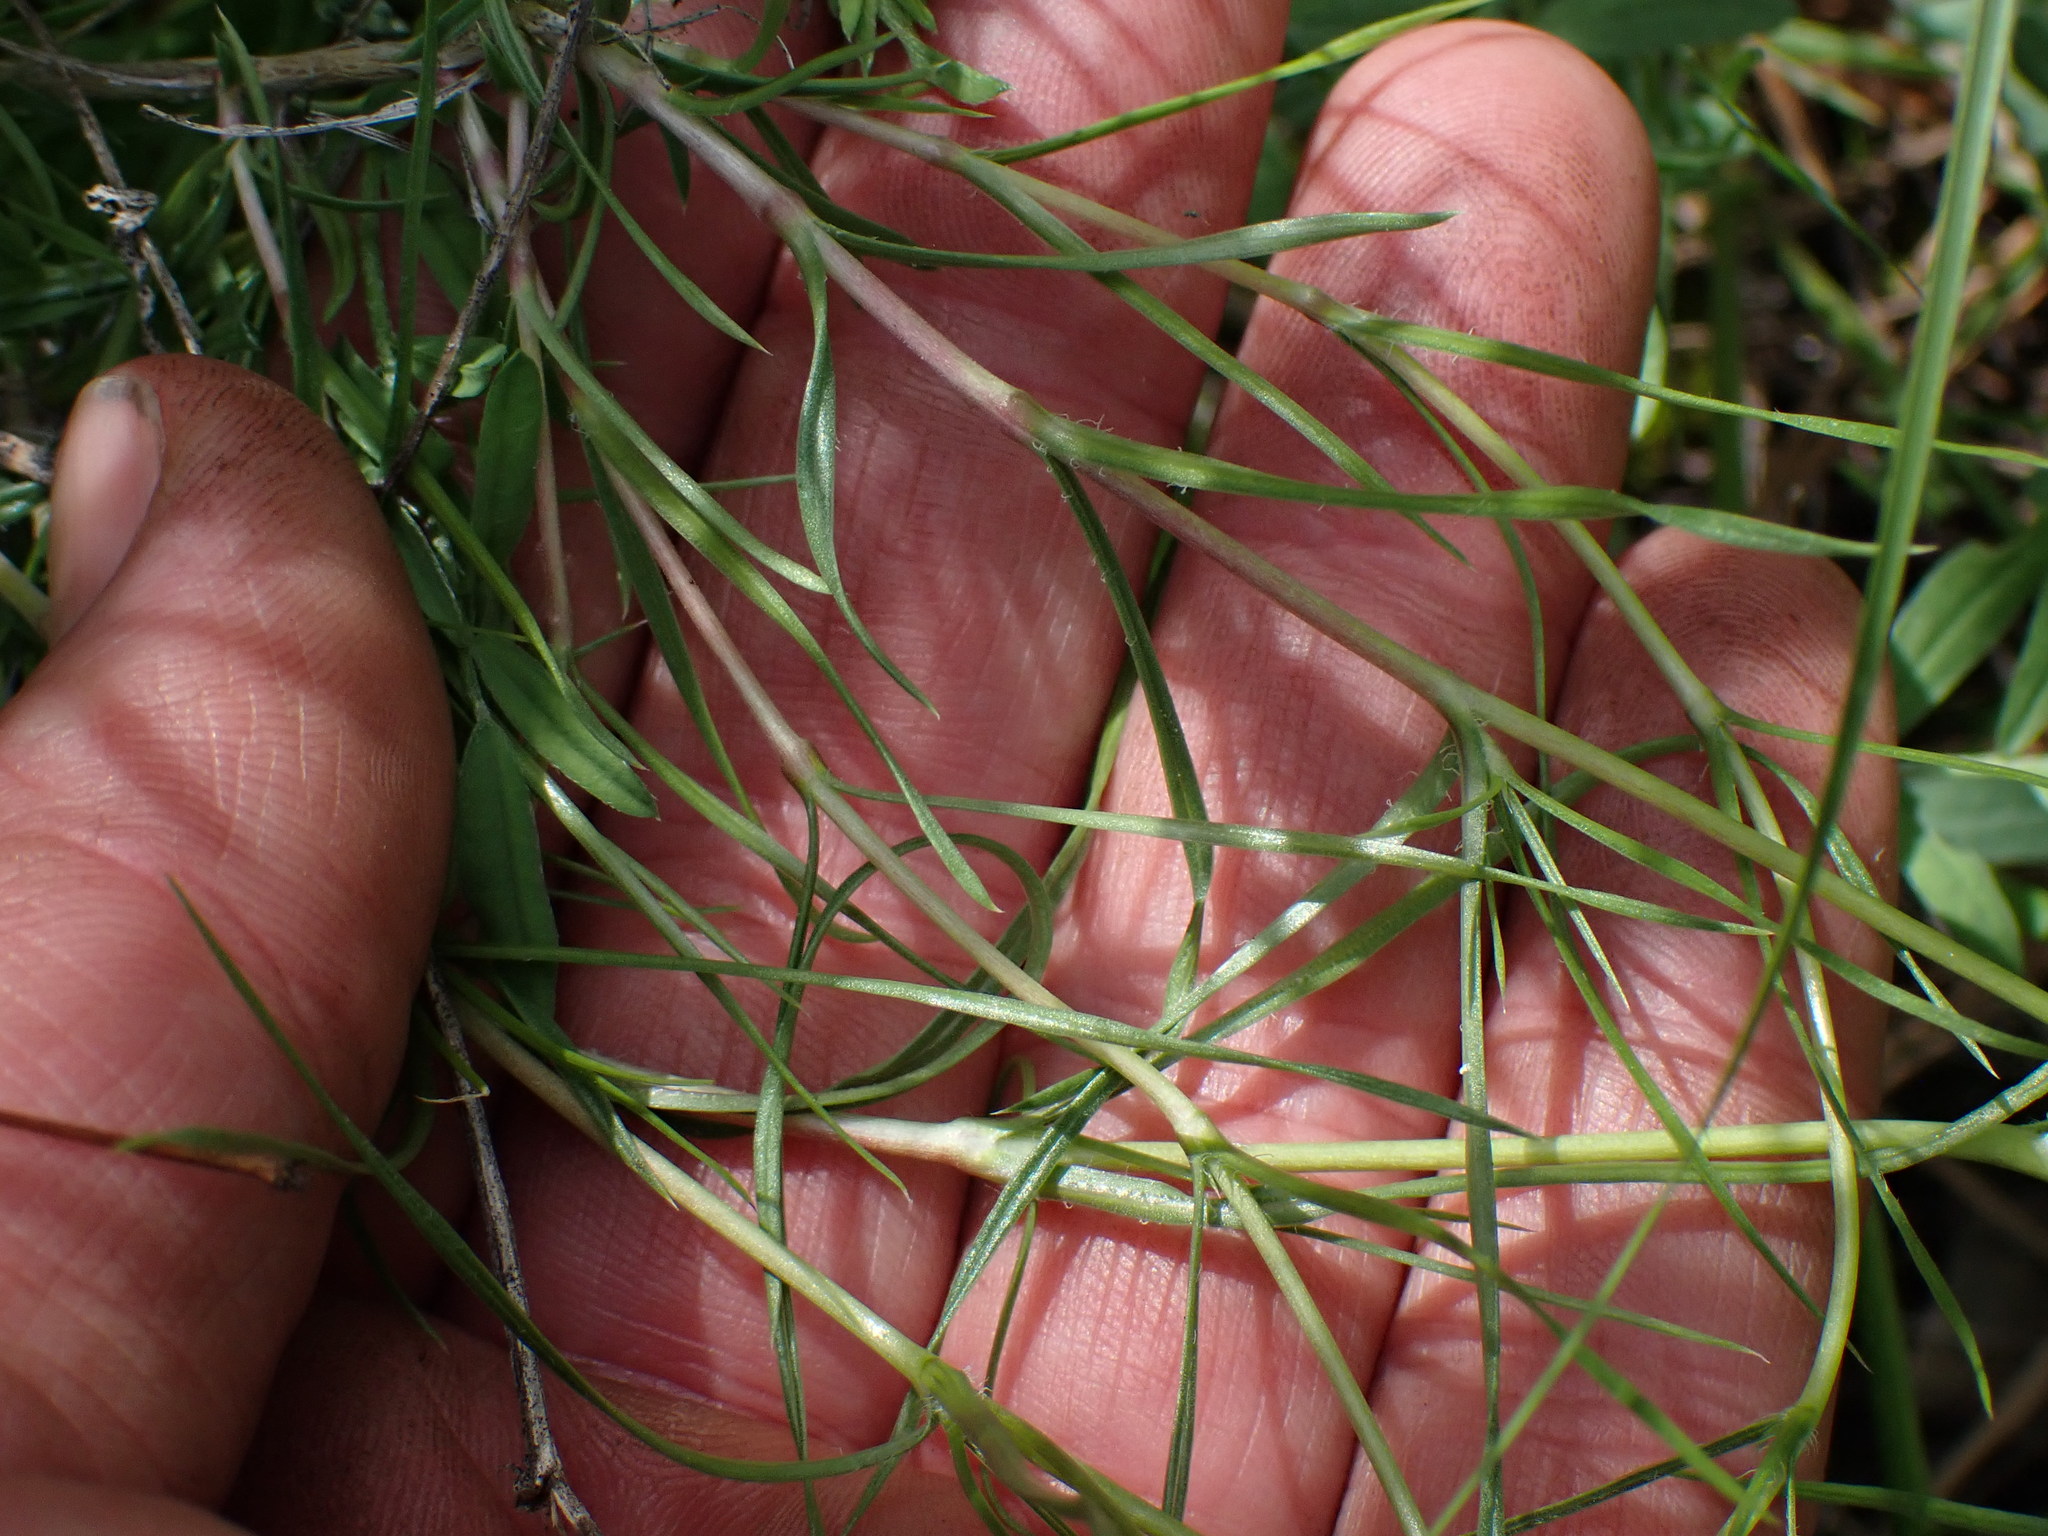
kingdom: Plantae
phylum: Tracheophyta
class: Magnoliopsida
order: Ericales
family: Polemoniaceae
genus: Phlox
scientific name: Phlox longifolia
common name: Longleaf phlox
